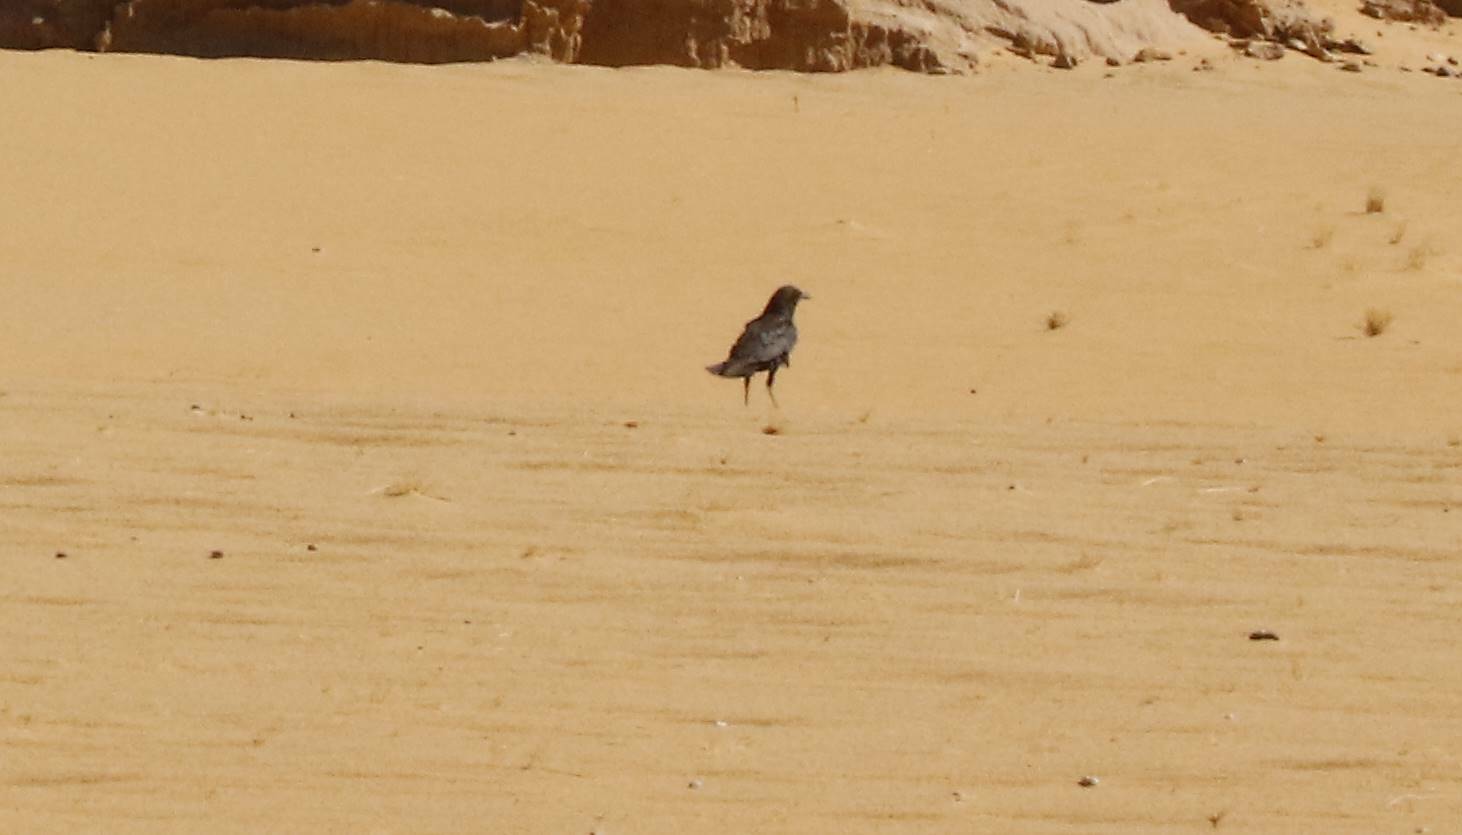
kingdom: Animalia
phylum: Chordata
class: Aves
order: Passeriformes
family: Corvidae
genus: Corvus
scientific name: Corvus ruficollis
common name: Brown-necked raven
